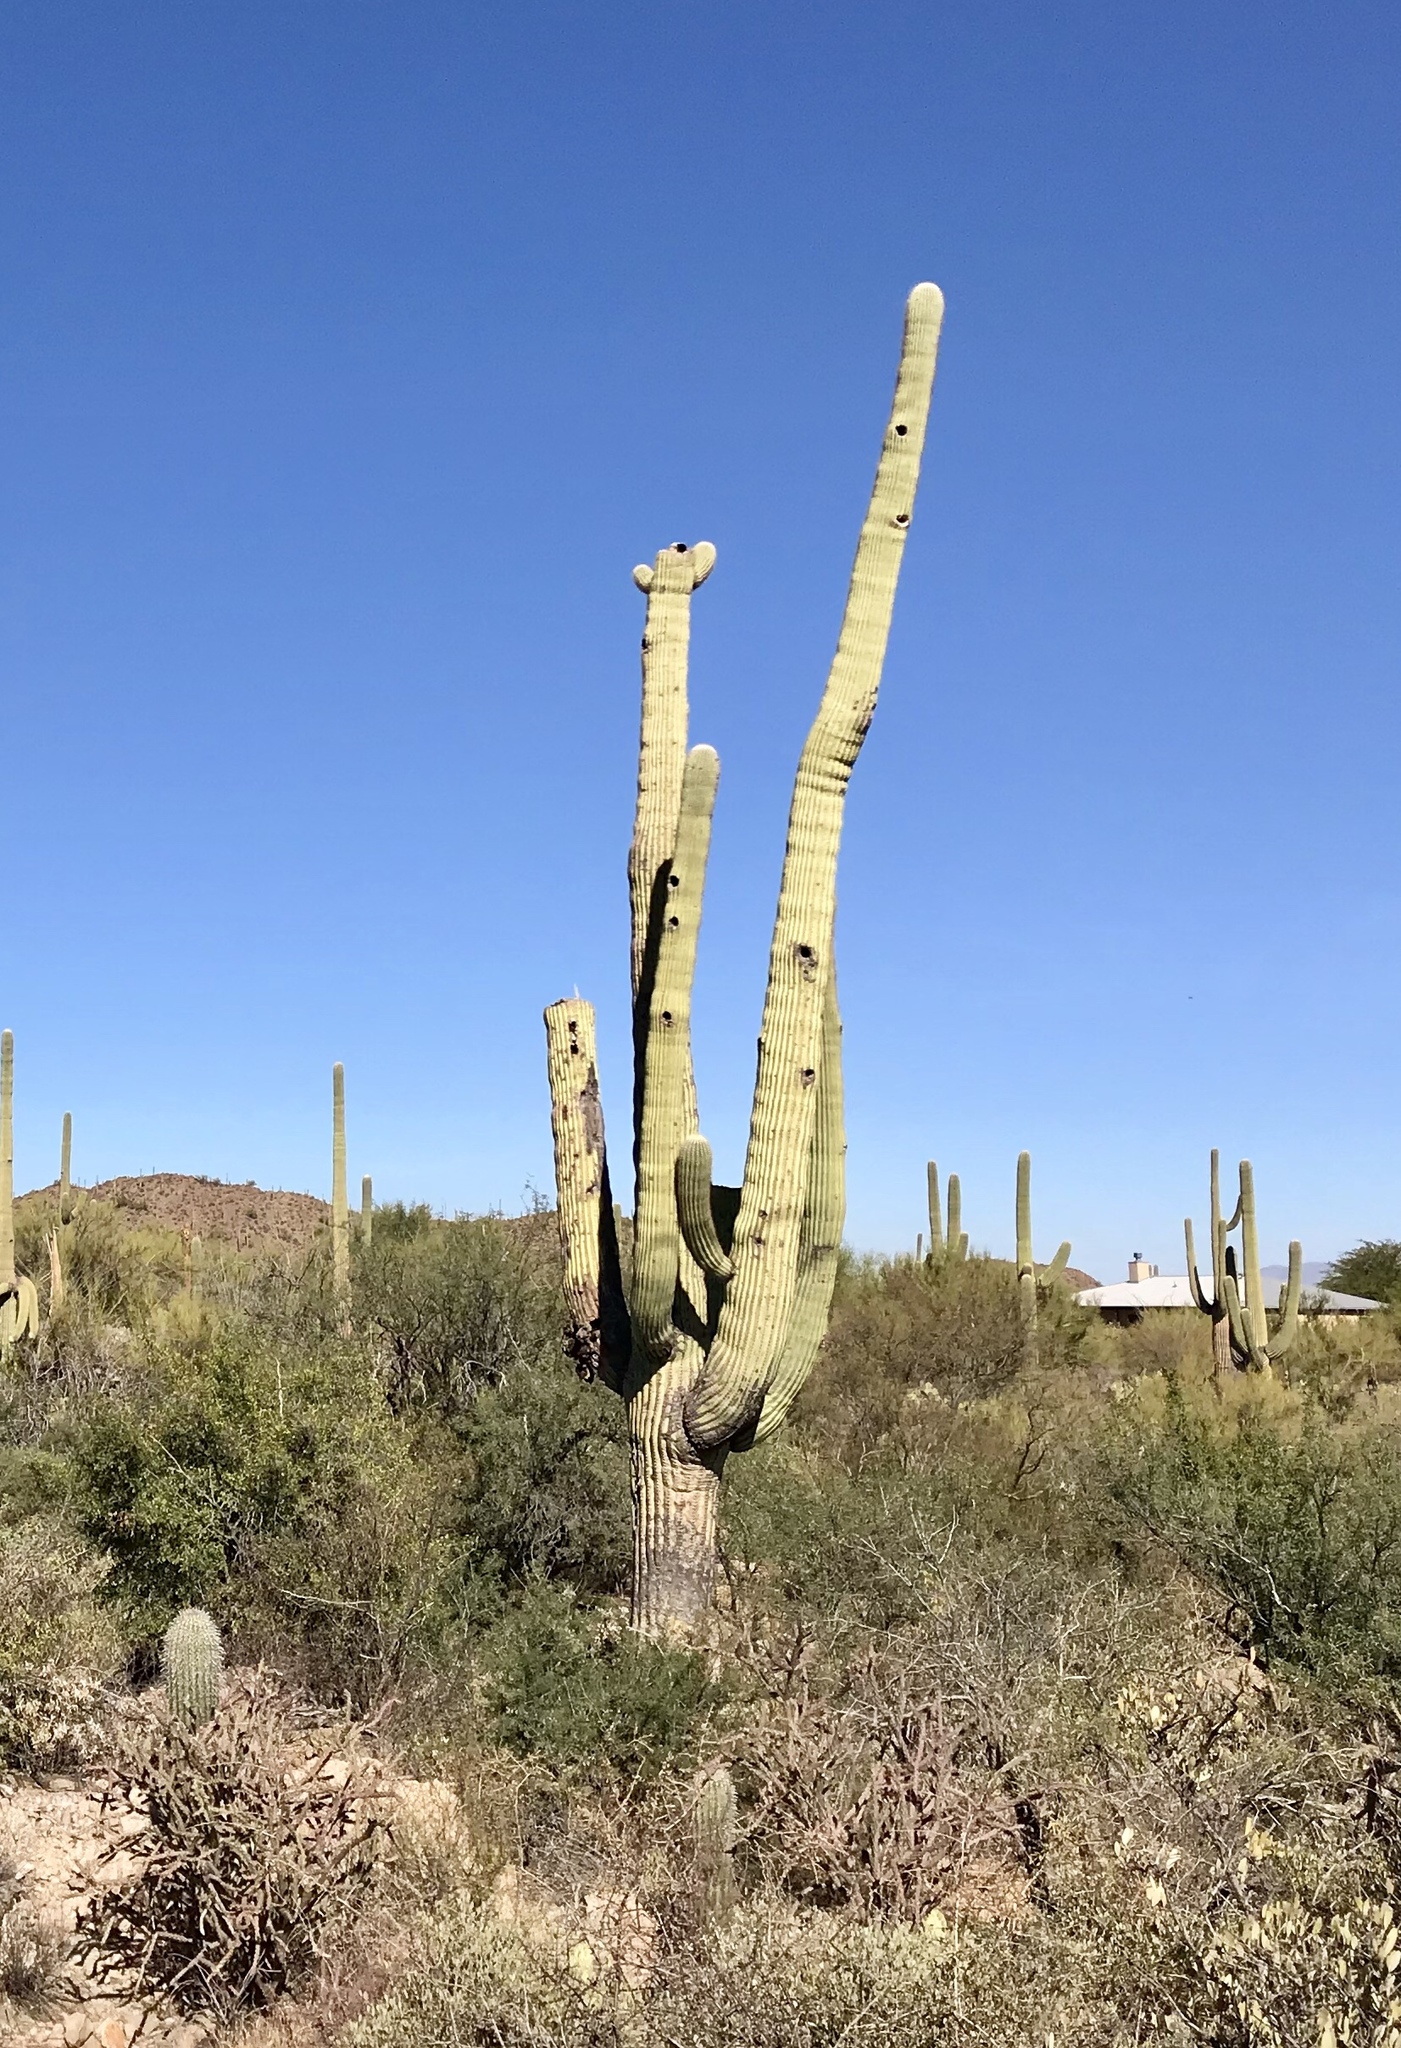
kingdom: Plantae
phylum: Tracheophyta
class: Magnoliopsida
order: Caryophyllales
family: Cactaceae
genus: Carnegiea
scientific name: Carnegiea gigantea
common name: Saguaro
